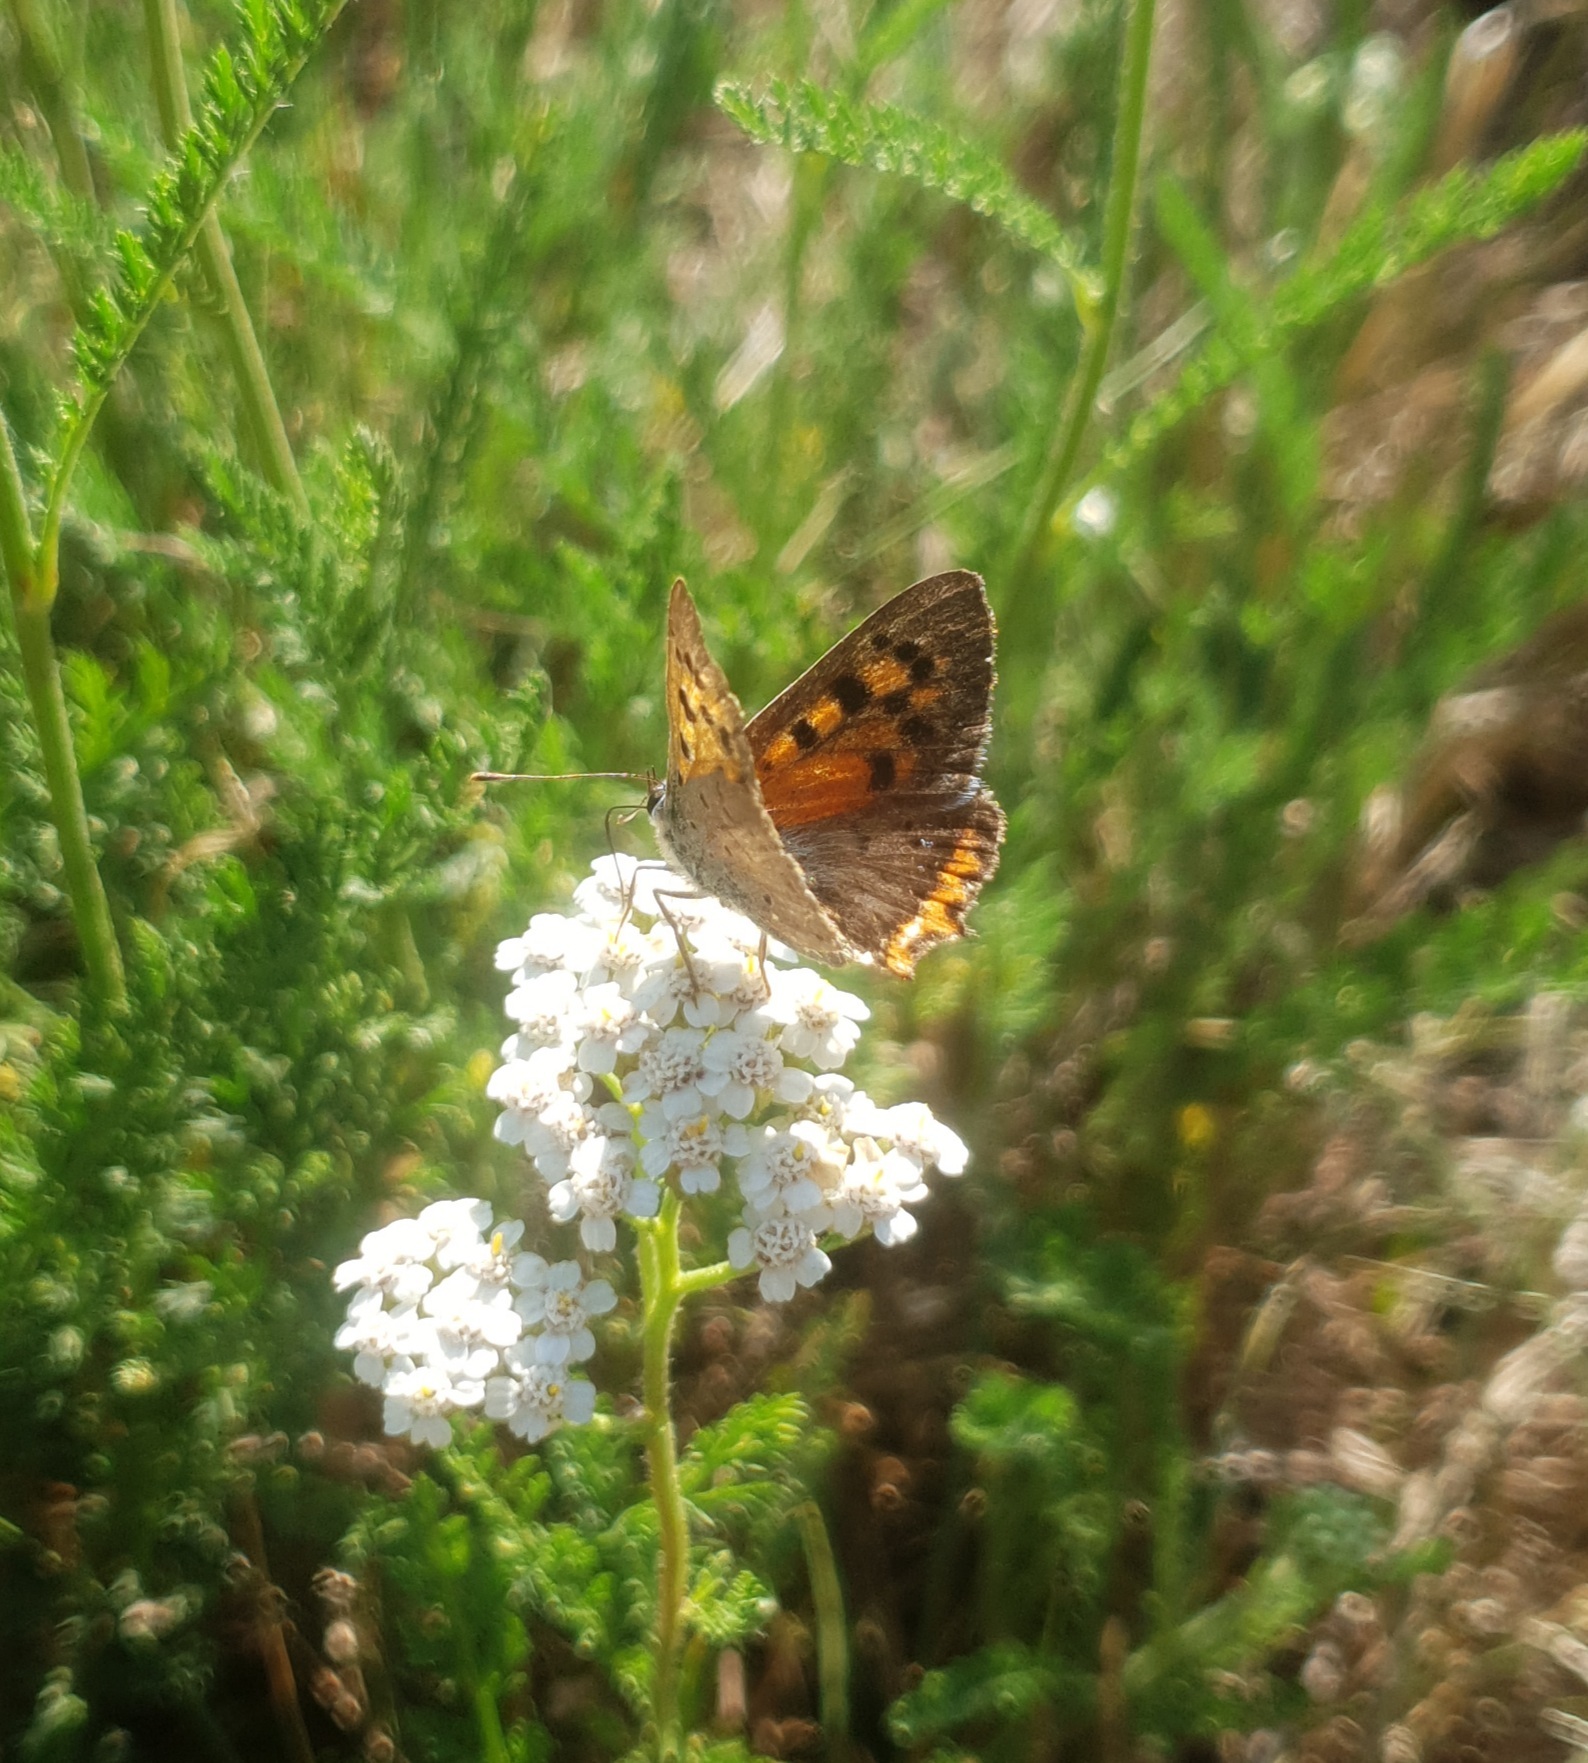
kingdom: Animalia
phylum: Arthropoda
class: Insecta
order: Lepidoptera
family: Lycaenidae
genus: Lycaena
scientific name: Lycaena phlaeas
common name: Small copper
